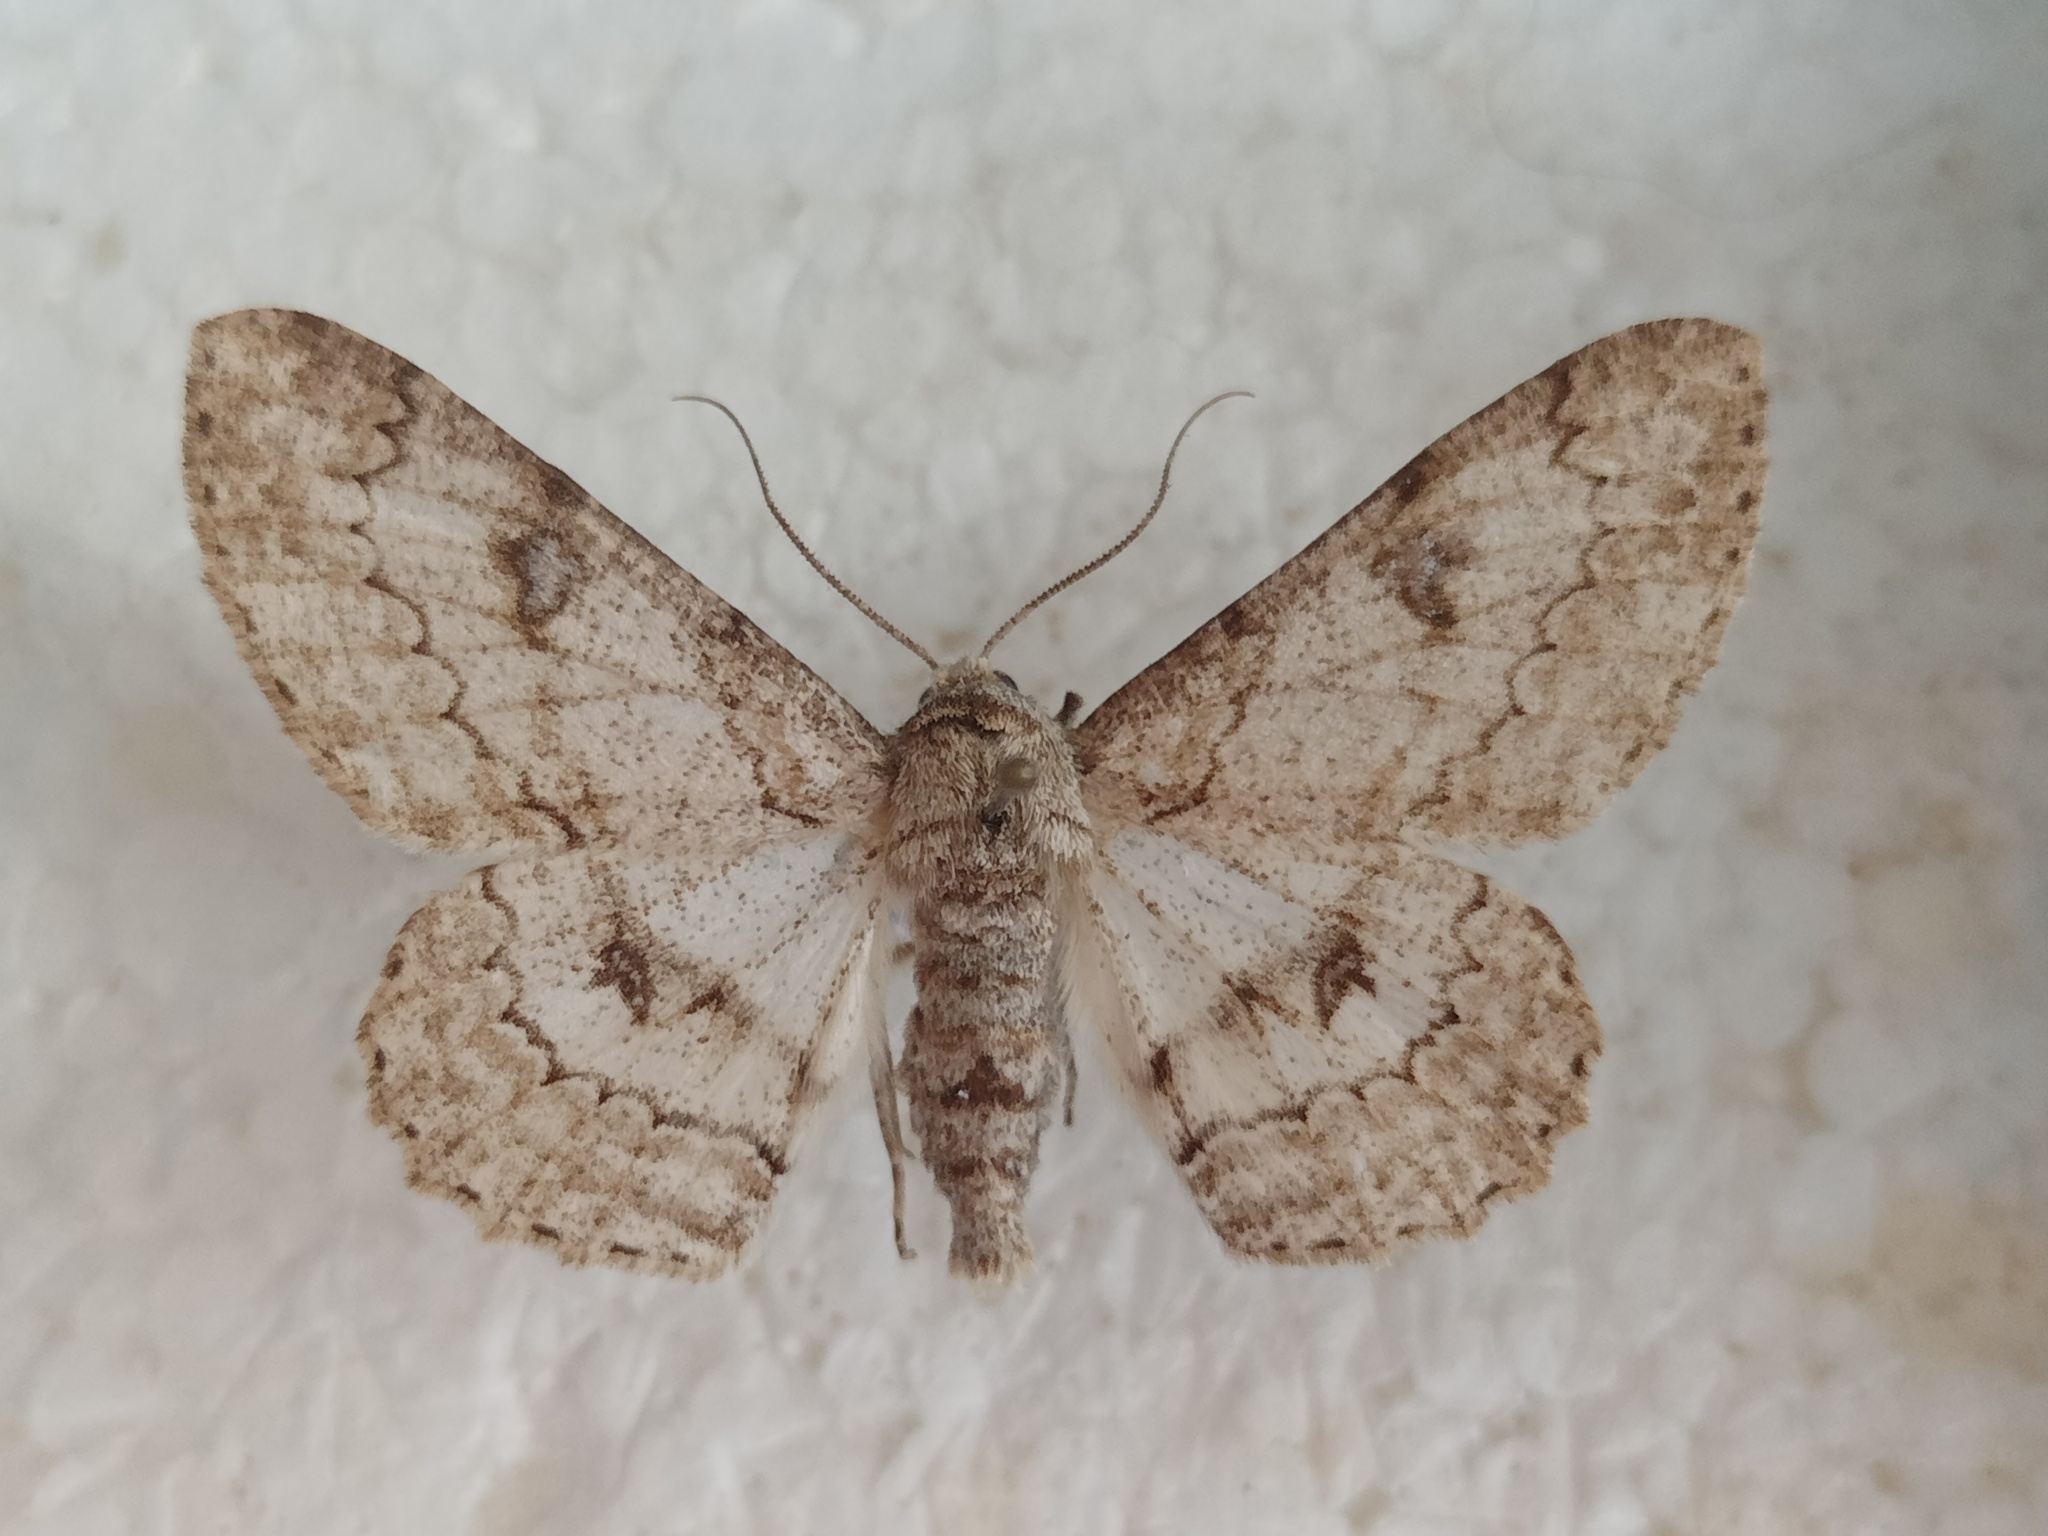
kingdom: Animalia
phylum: Arthropoda
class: Insecta
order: Lepidoptera
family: Geometridae
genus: Ascotis
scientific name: Ascotis selenaria
